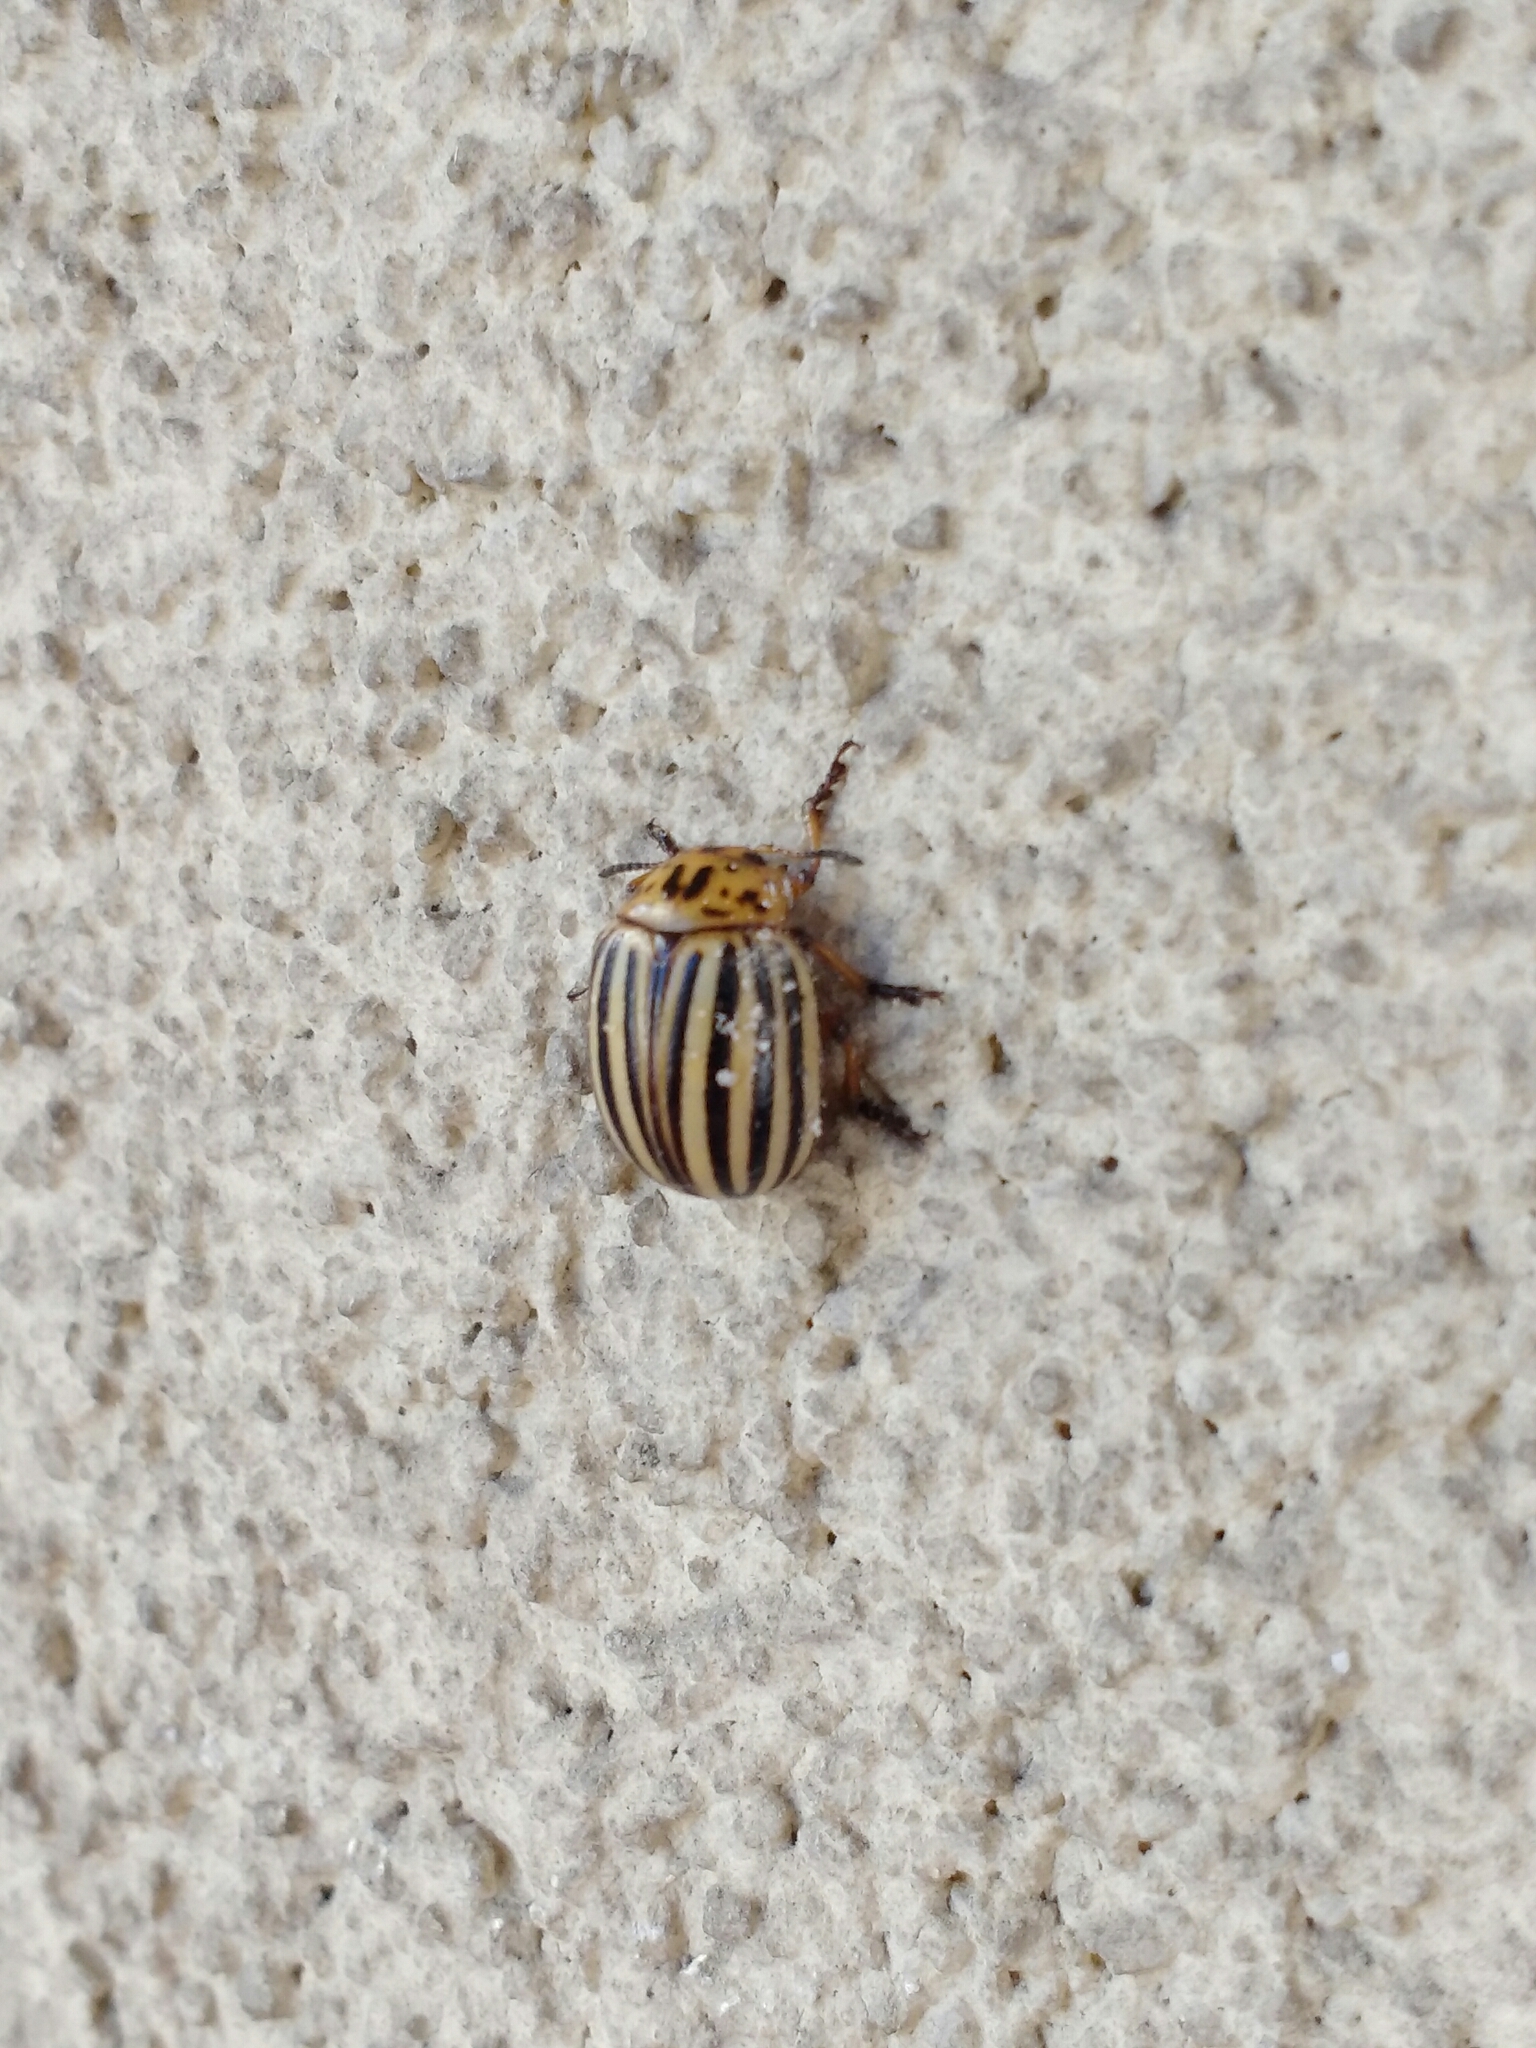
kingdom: Animalia
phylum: Arthropoda
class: Insecta
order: Coleoptera
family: Chrysomelidae
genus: Leptinotarsa
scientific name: Leptinotarsa decemlineata
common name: Colorado potato beetle
